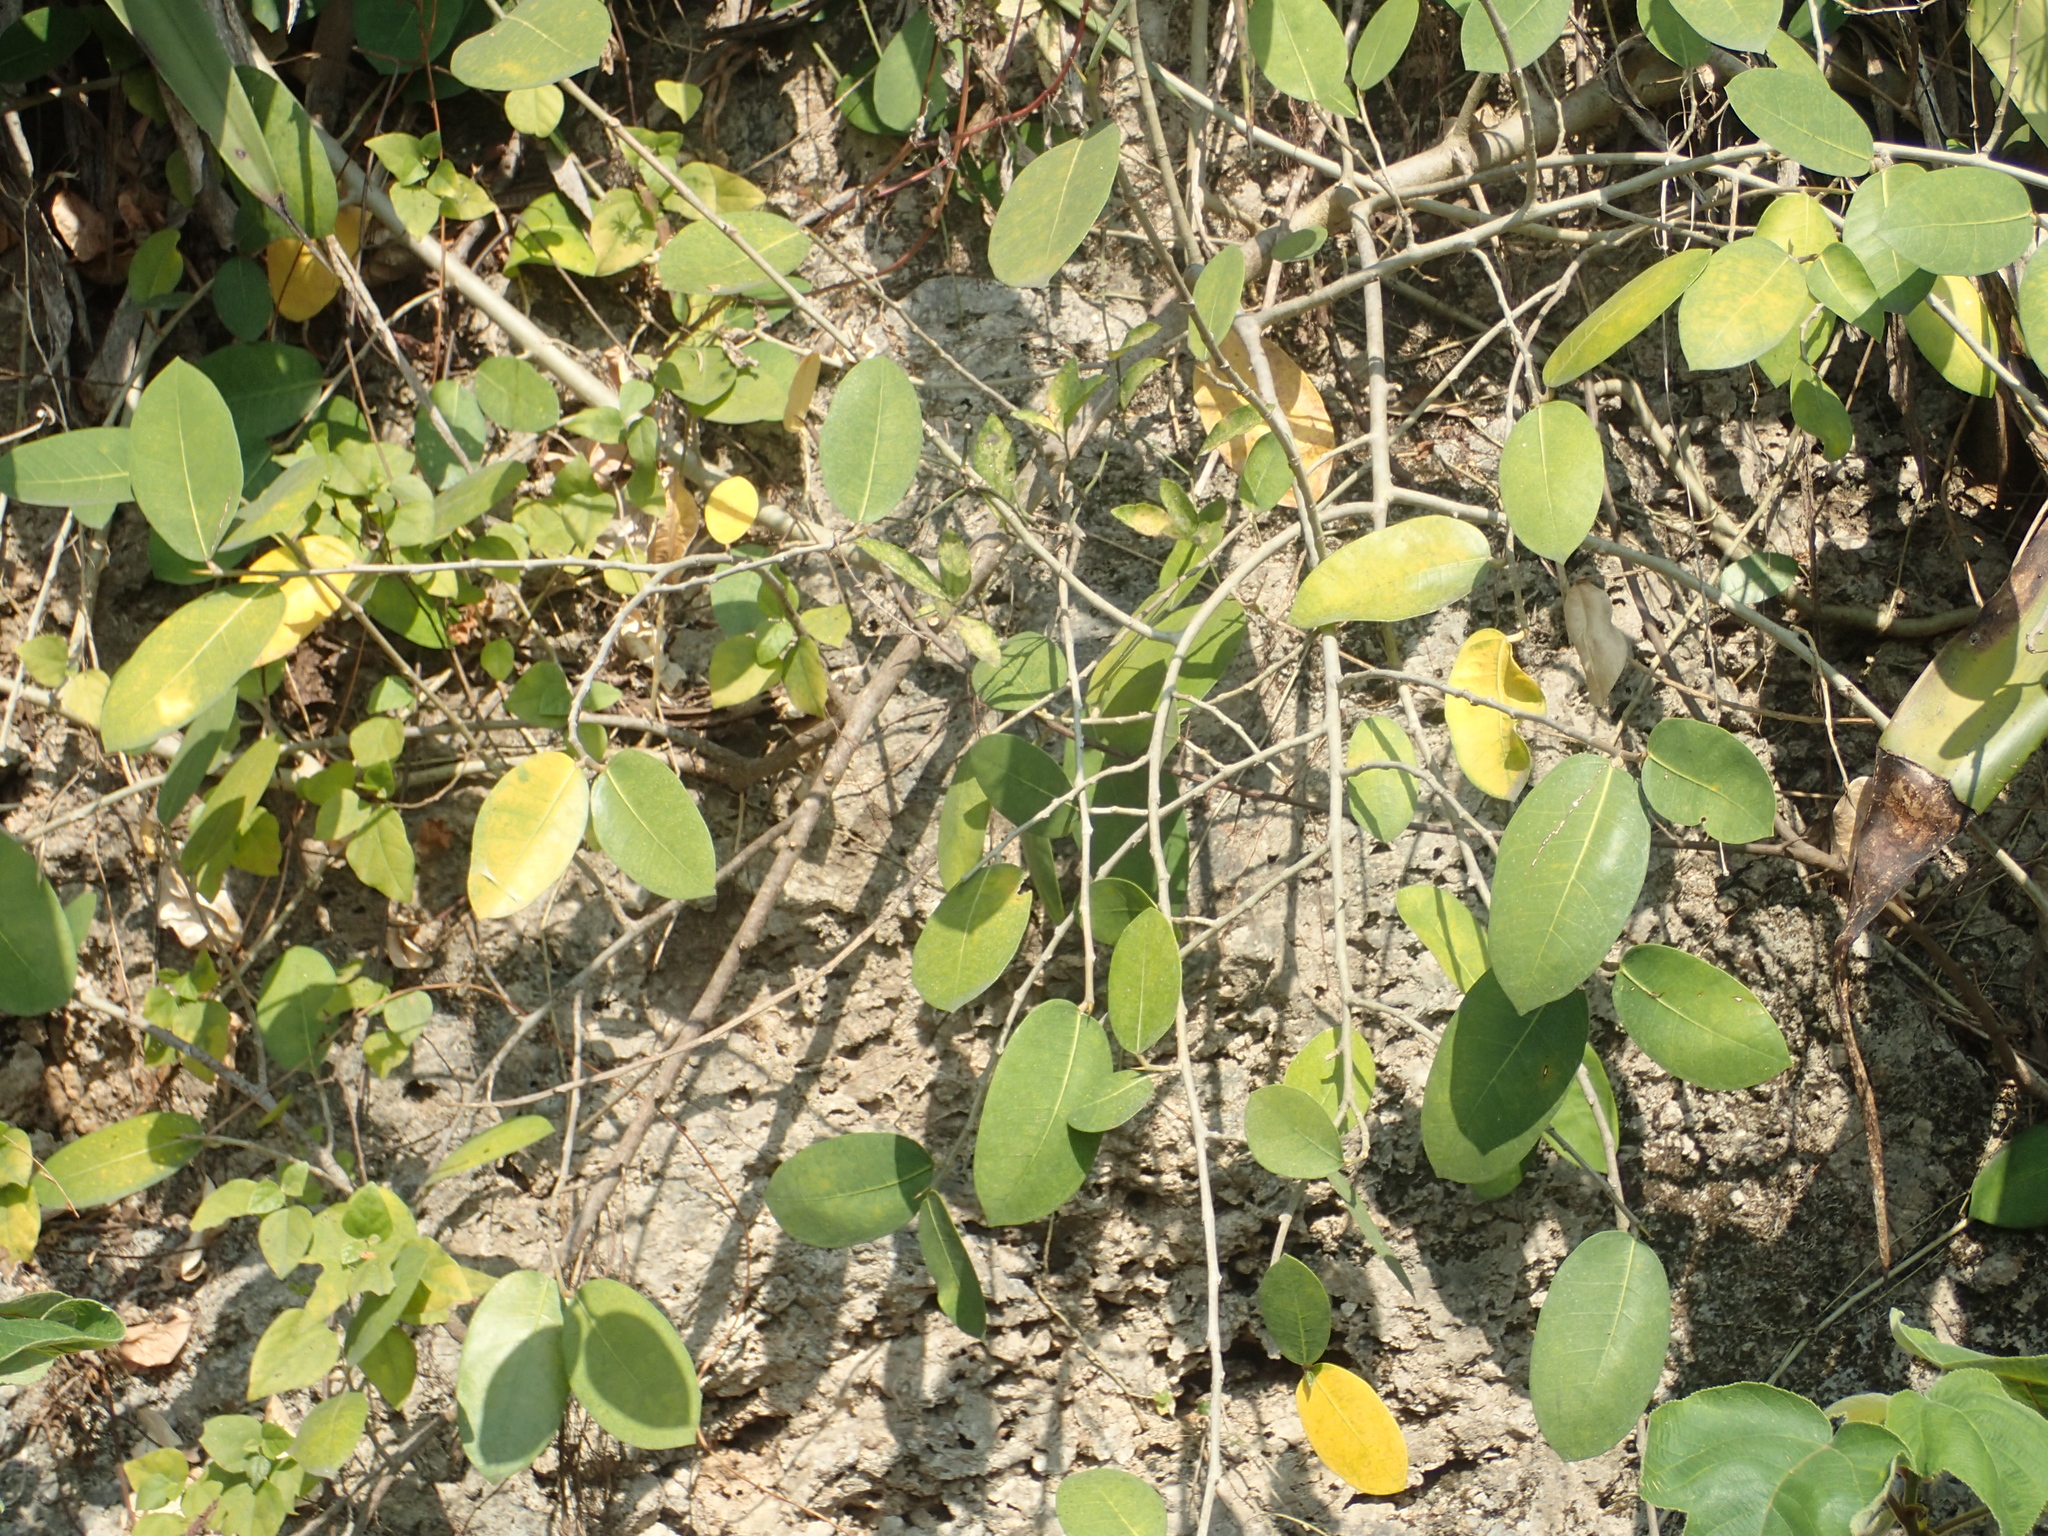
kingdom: Plantae
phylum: Tracheophyta
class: Magnoliopsida
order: Rosales
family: Moraceae
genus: Ficus
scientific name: Ficus tinctoria
